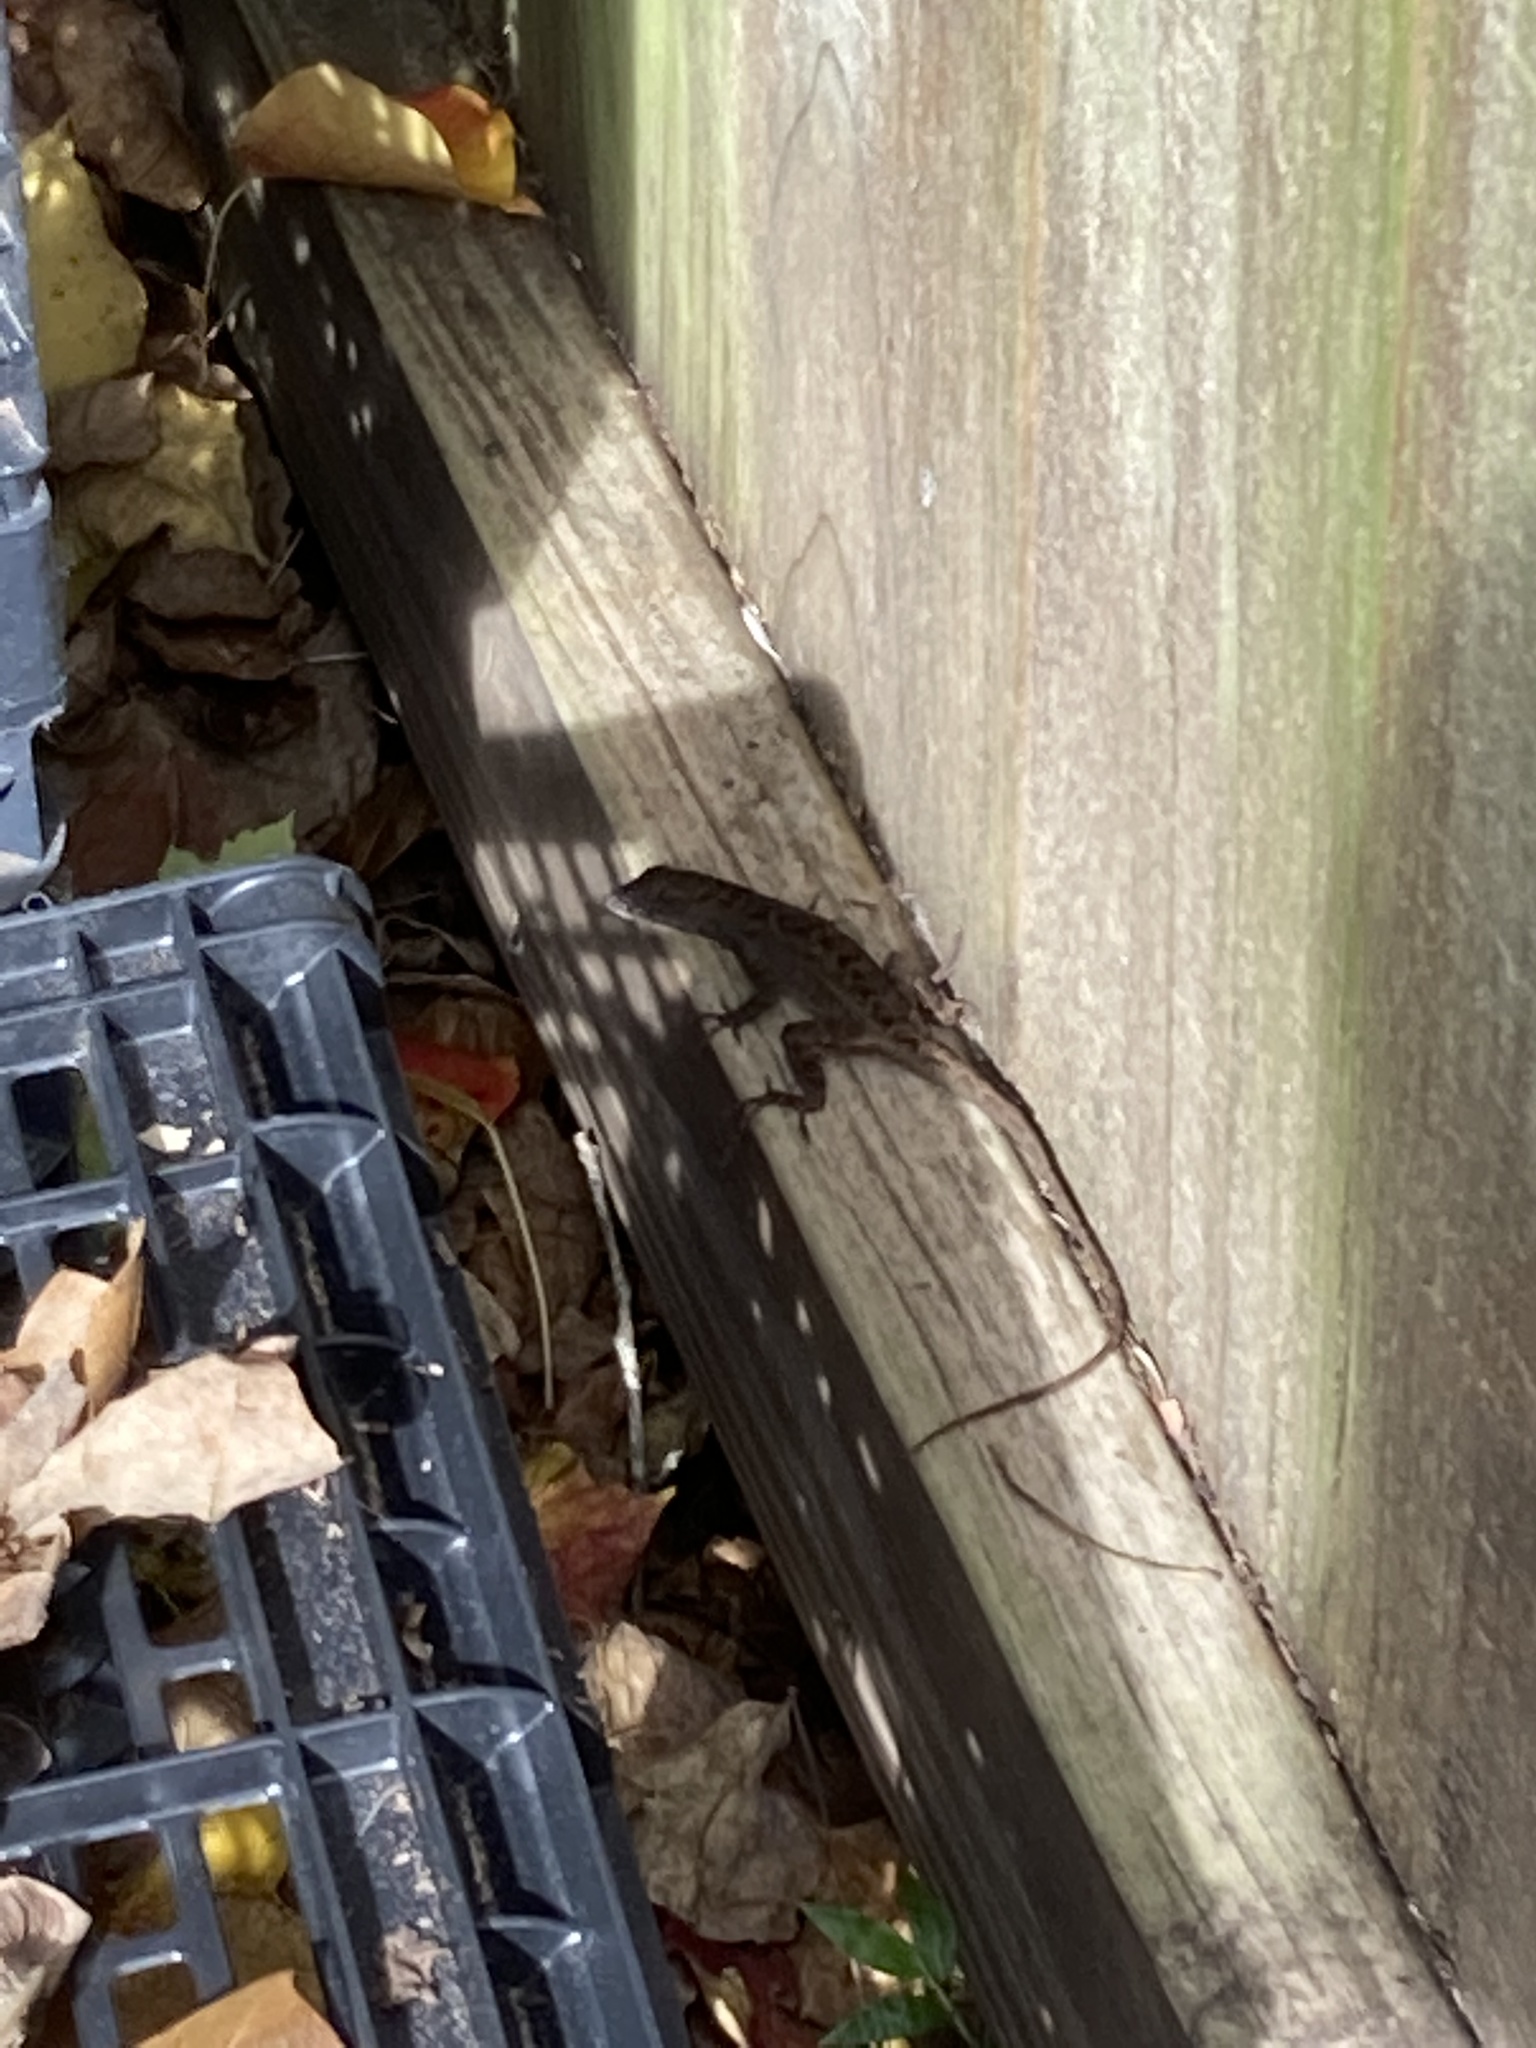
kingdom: Animalia
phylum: Chordata
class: Squamata
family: Dactyloidae
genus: Anolis
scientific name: Anolis sagrei
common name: Brown anole
